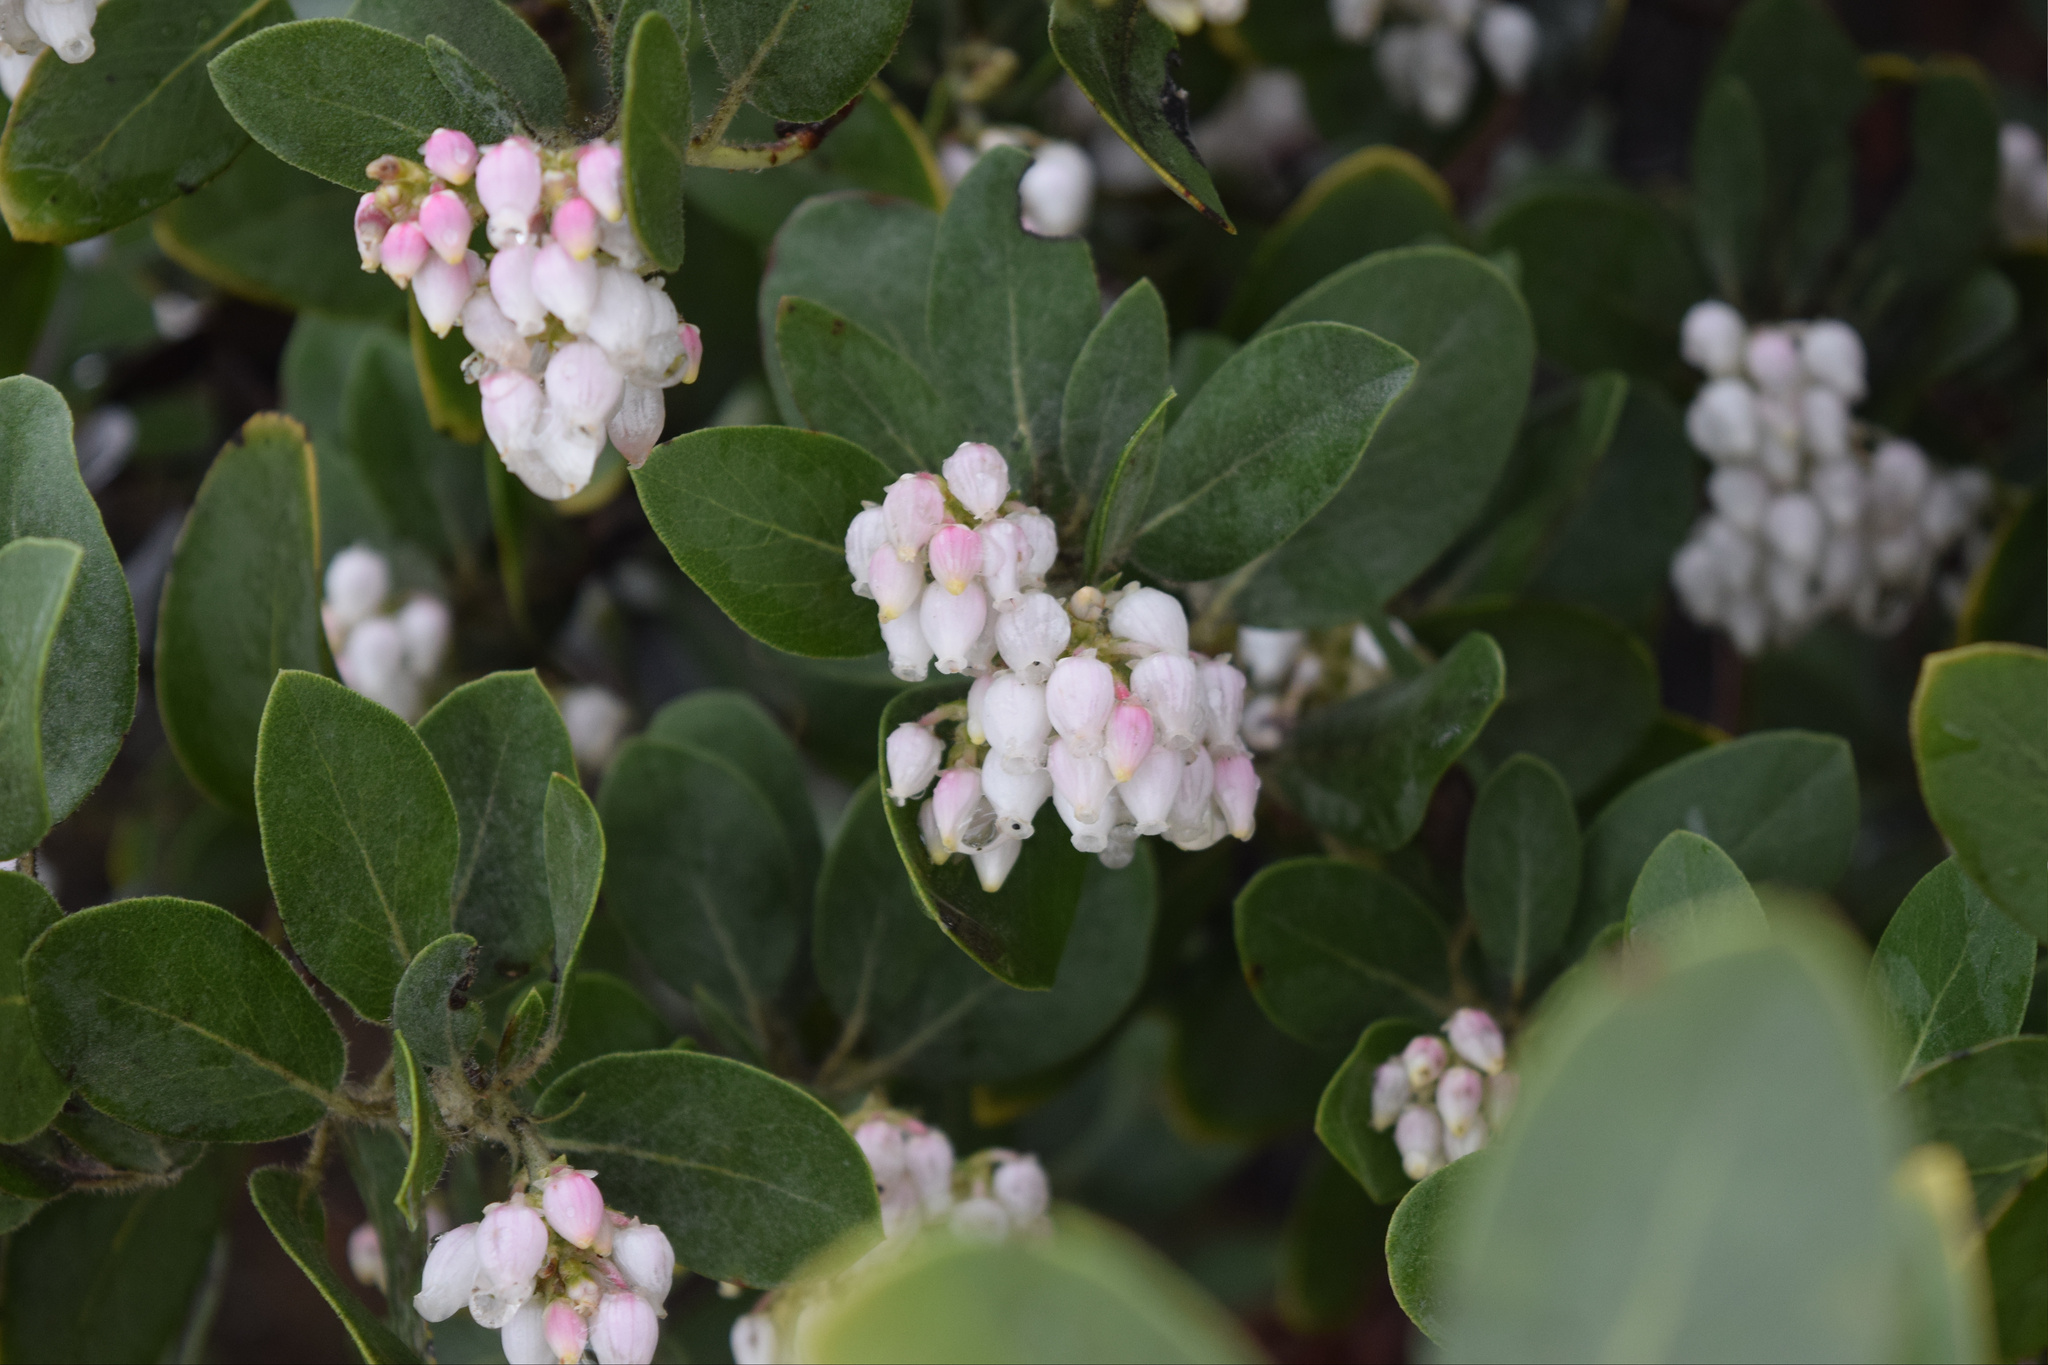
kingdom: Plantae
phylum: Tracheophyta
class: Magnoliopsida
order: Ericales
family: Ericaceae
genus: Arctostaphylos
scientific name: Arctostaphylos glandulosa
